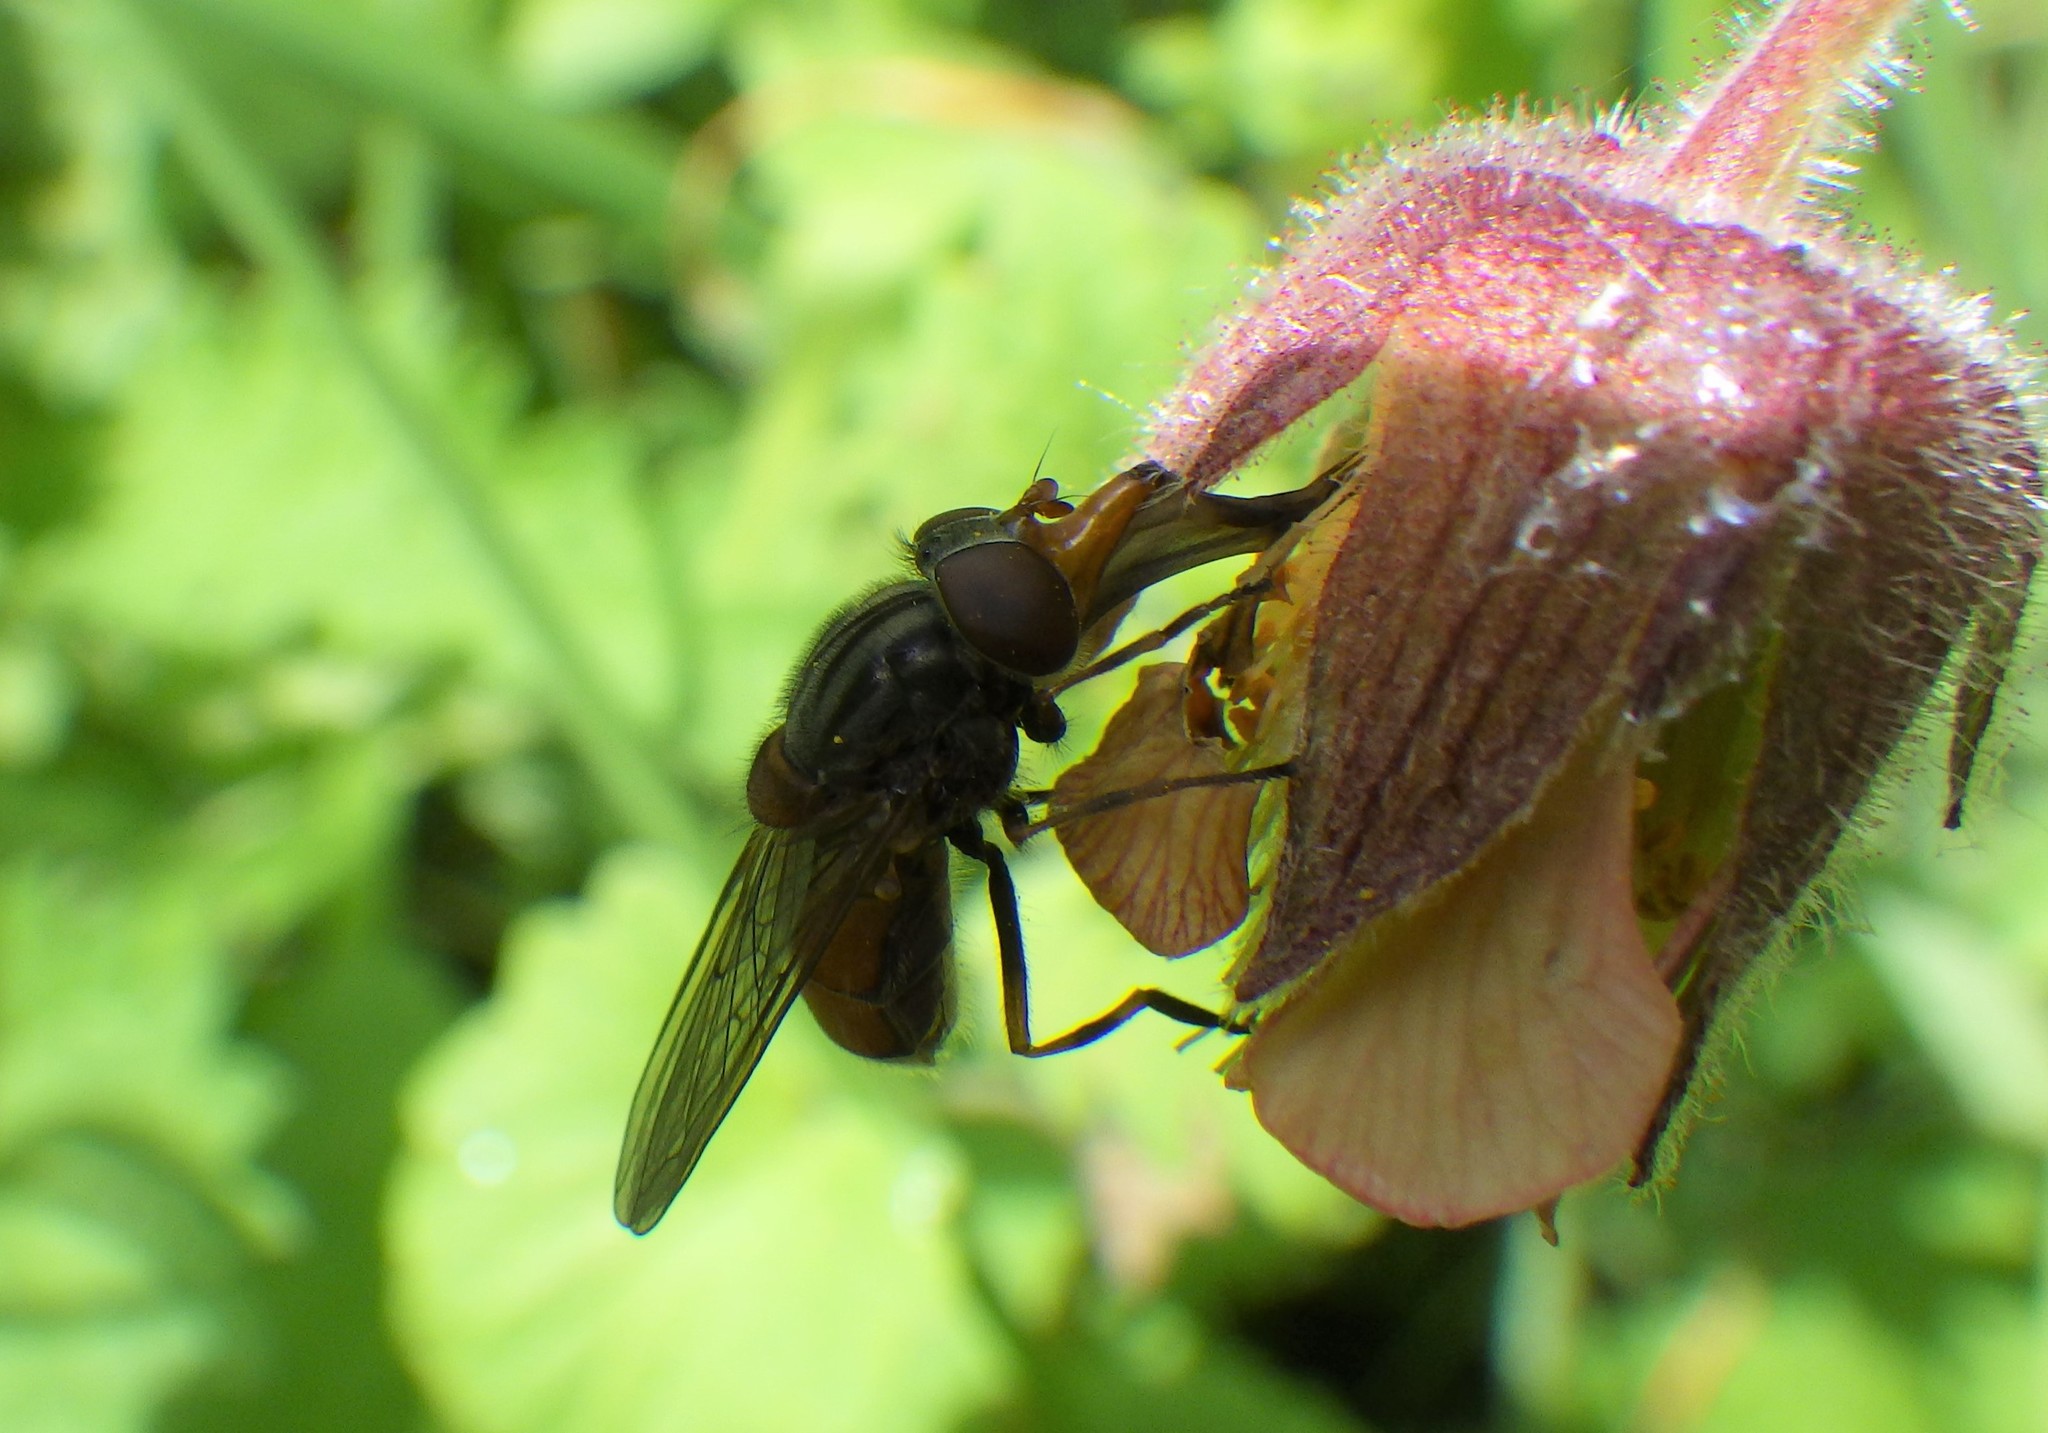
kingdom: Animalia
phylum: Arthropoda
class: Insecta
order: Diptera
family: Syrphidae
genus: Rhingia
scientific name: Rhingia campestris
